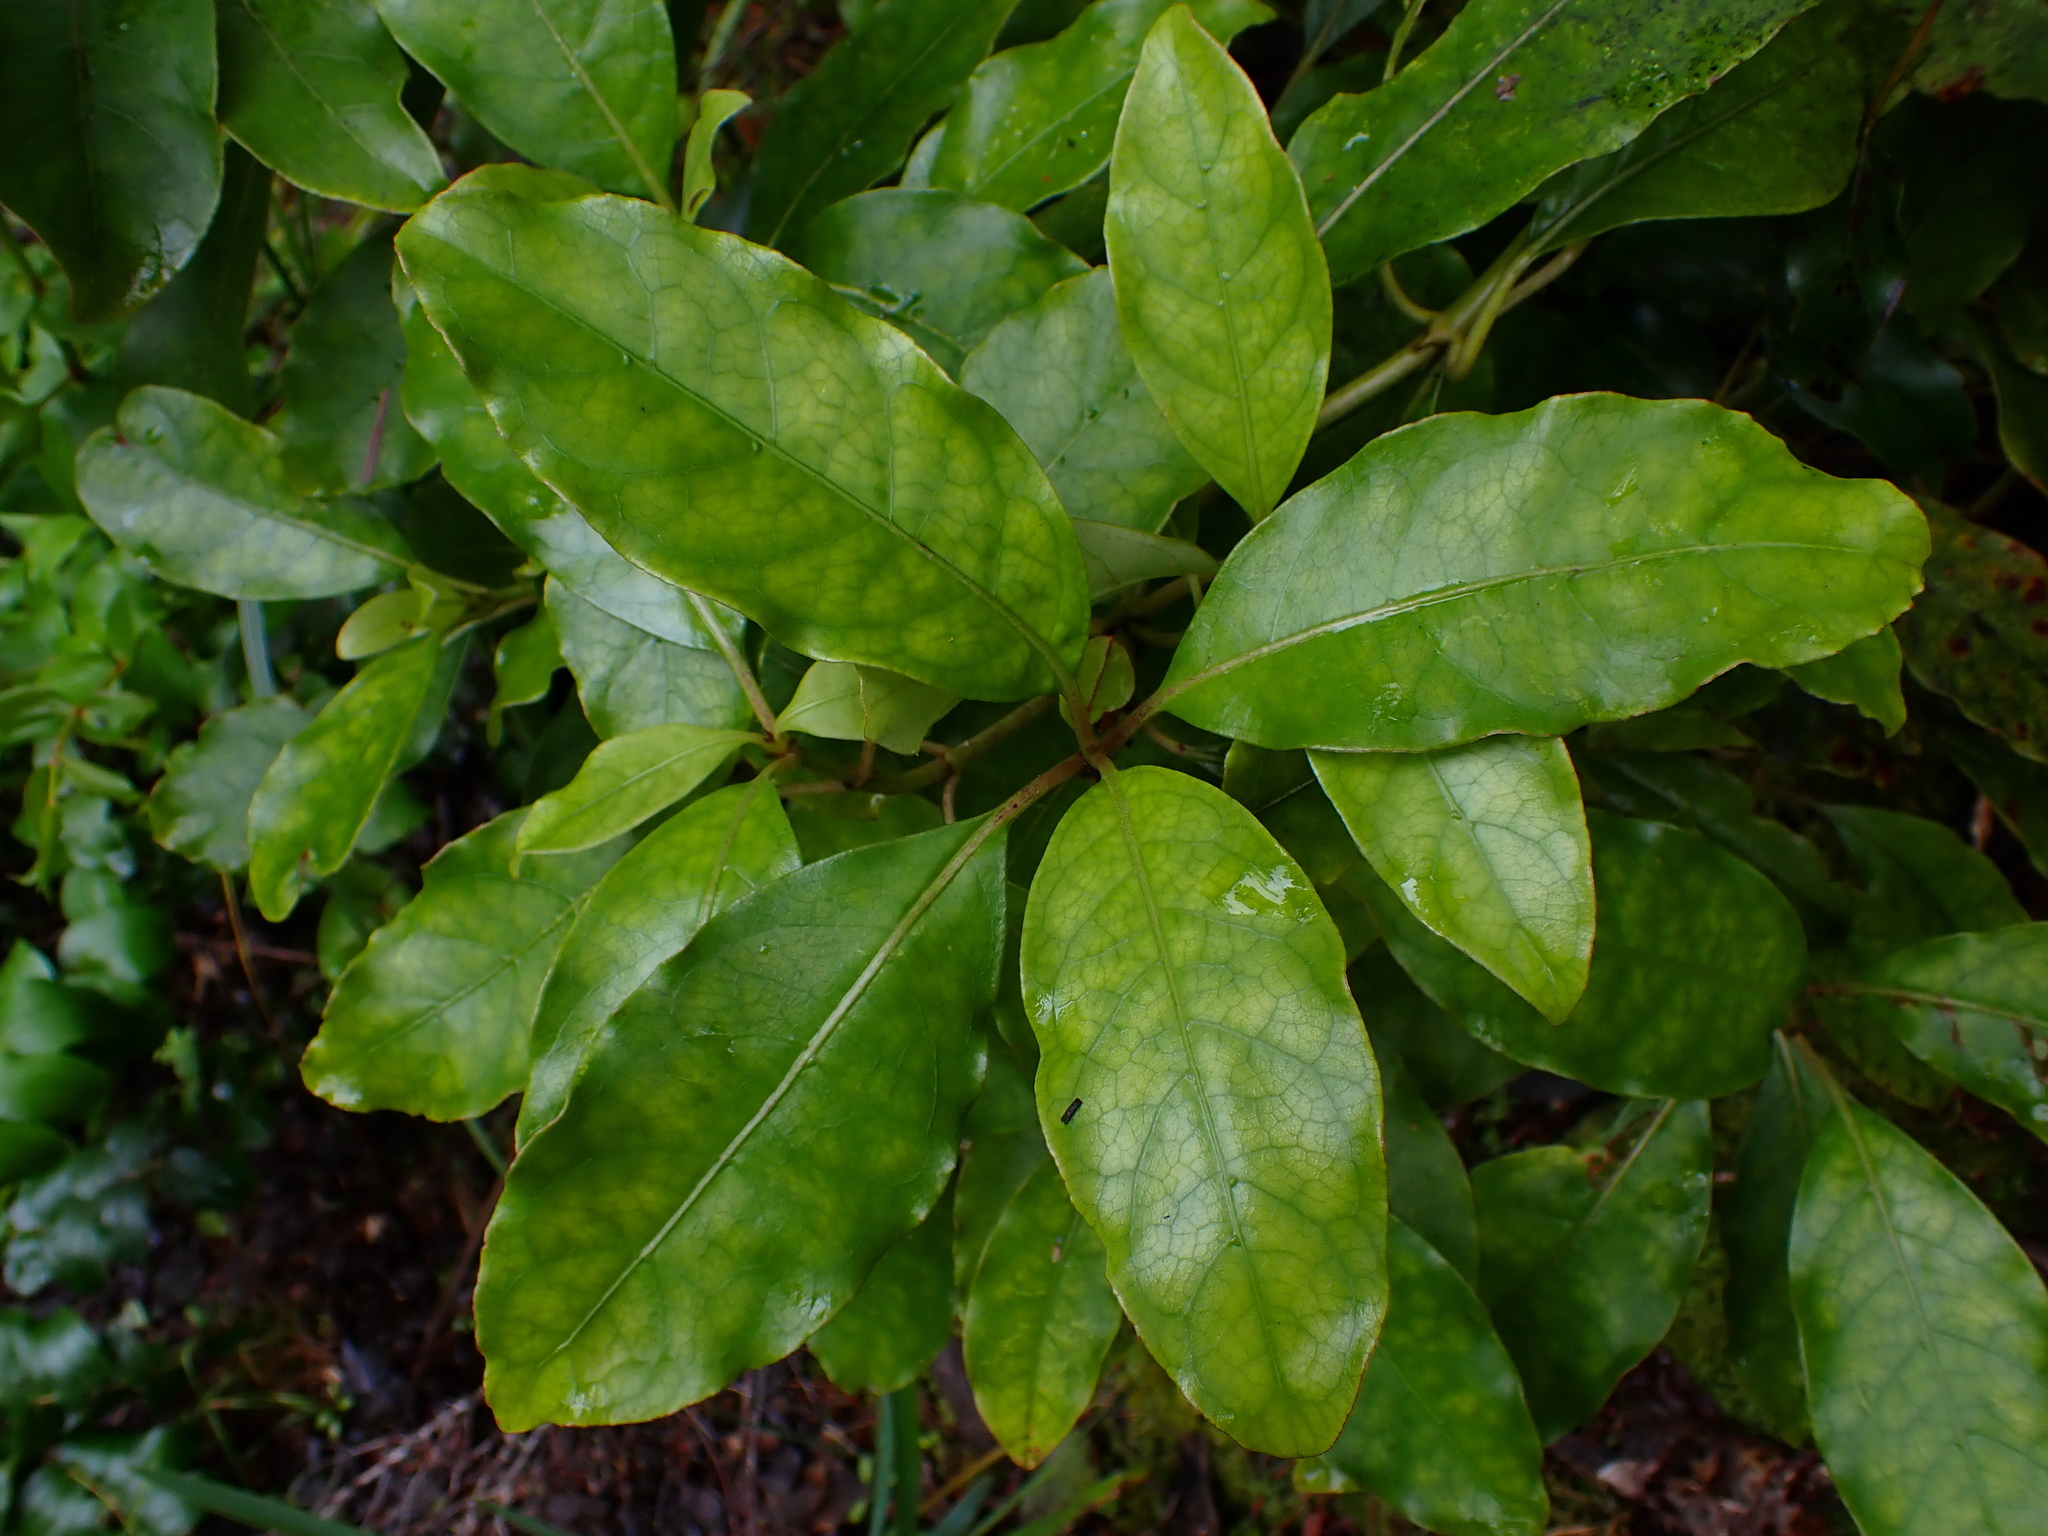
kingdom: Plantae
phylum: Tracheophyta
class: Magnoliopsida
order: Gentianales
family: Rubiaceae
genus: Coprosma
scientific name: Coprosma autumnalis
